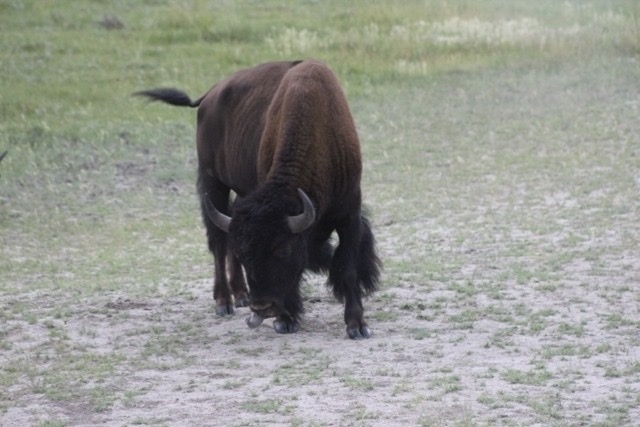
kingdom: Animalia
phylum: Chordata
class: Mammalia
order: Artiodactyla
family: Bovidae
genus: Bison
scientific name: Bison bison
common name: American bison
